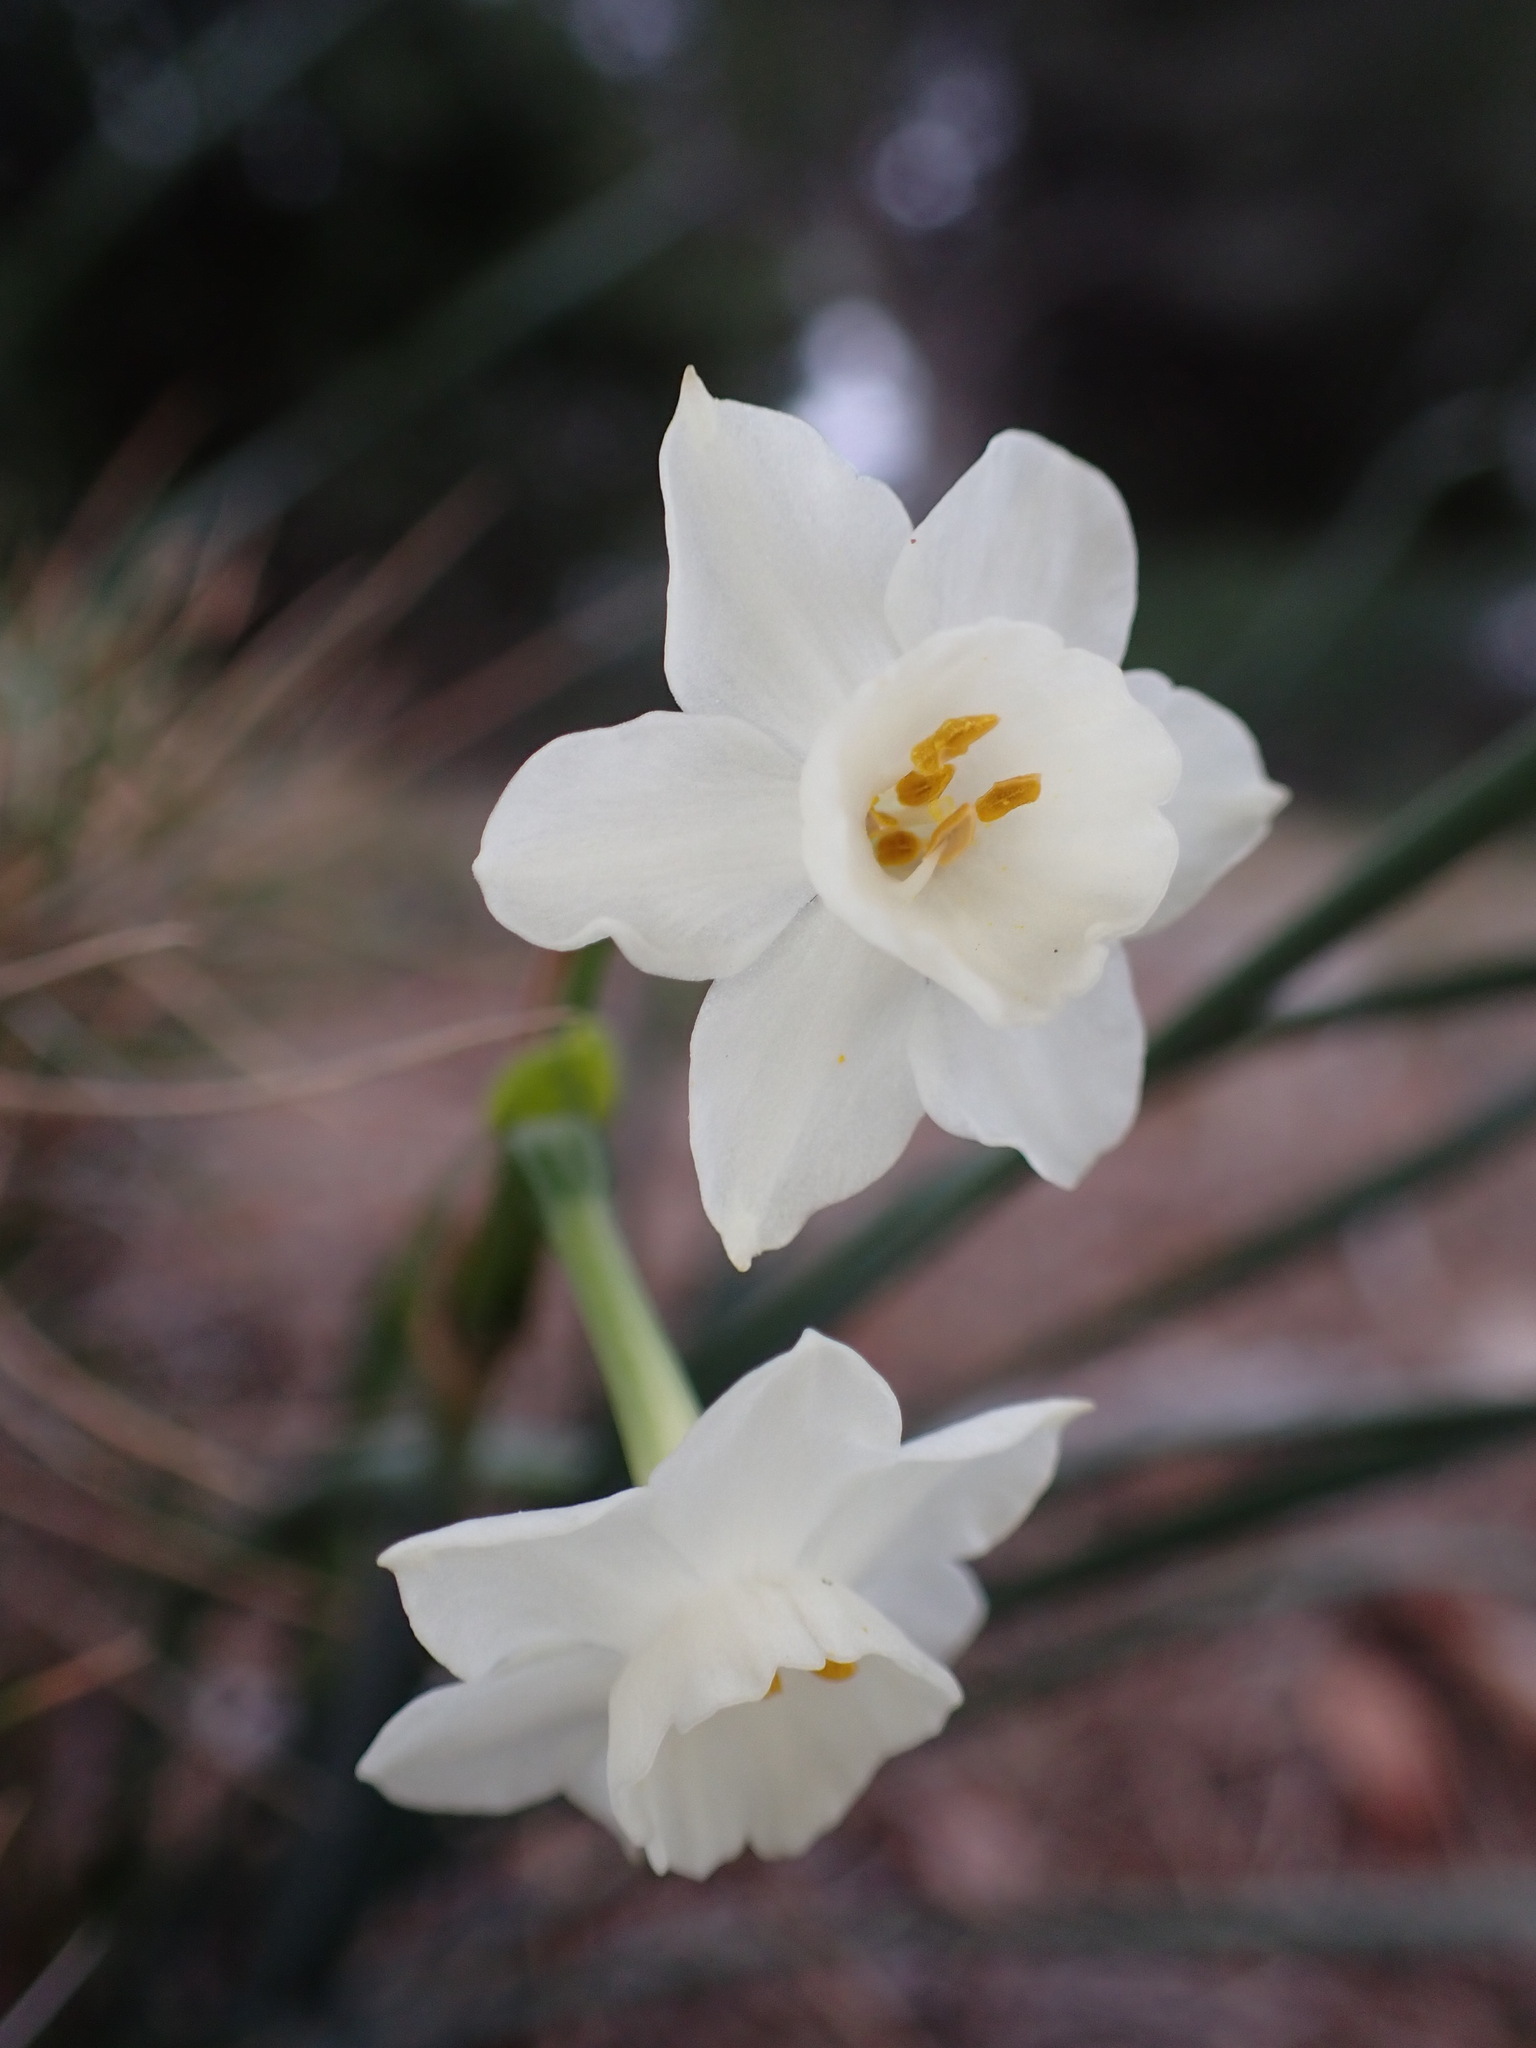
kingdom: Plantae
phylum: Tracheophyta
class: Liliopsida
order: Asparagales
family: Amaryllidaceae
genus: Narcissus
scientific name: Narcissus dubius
